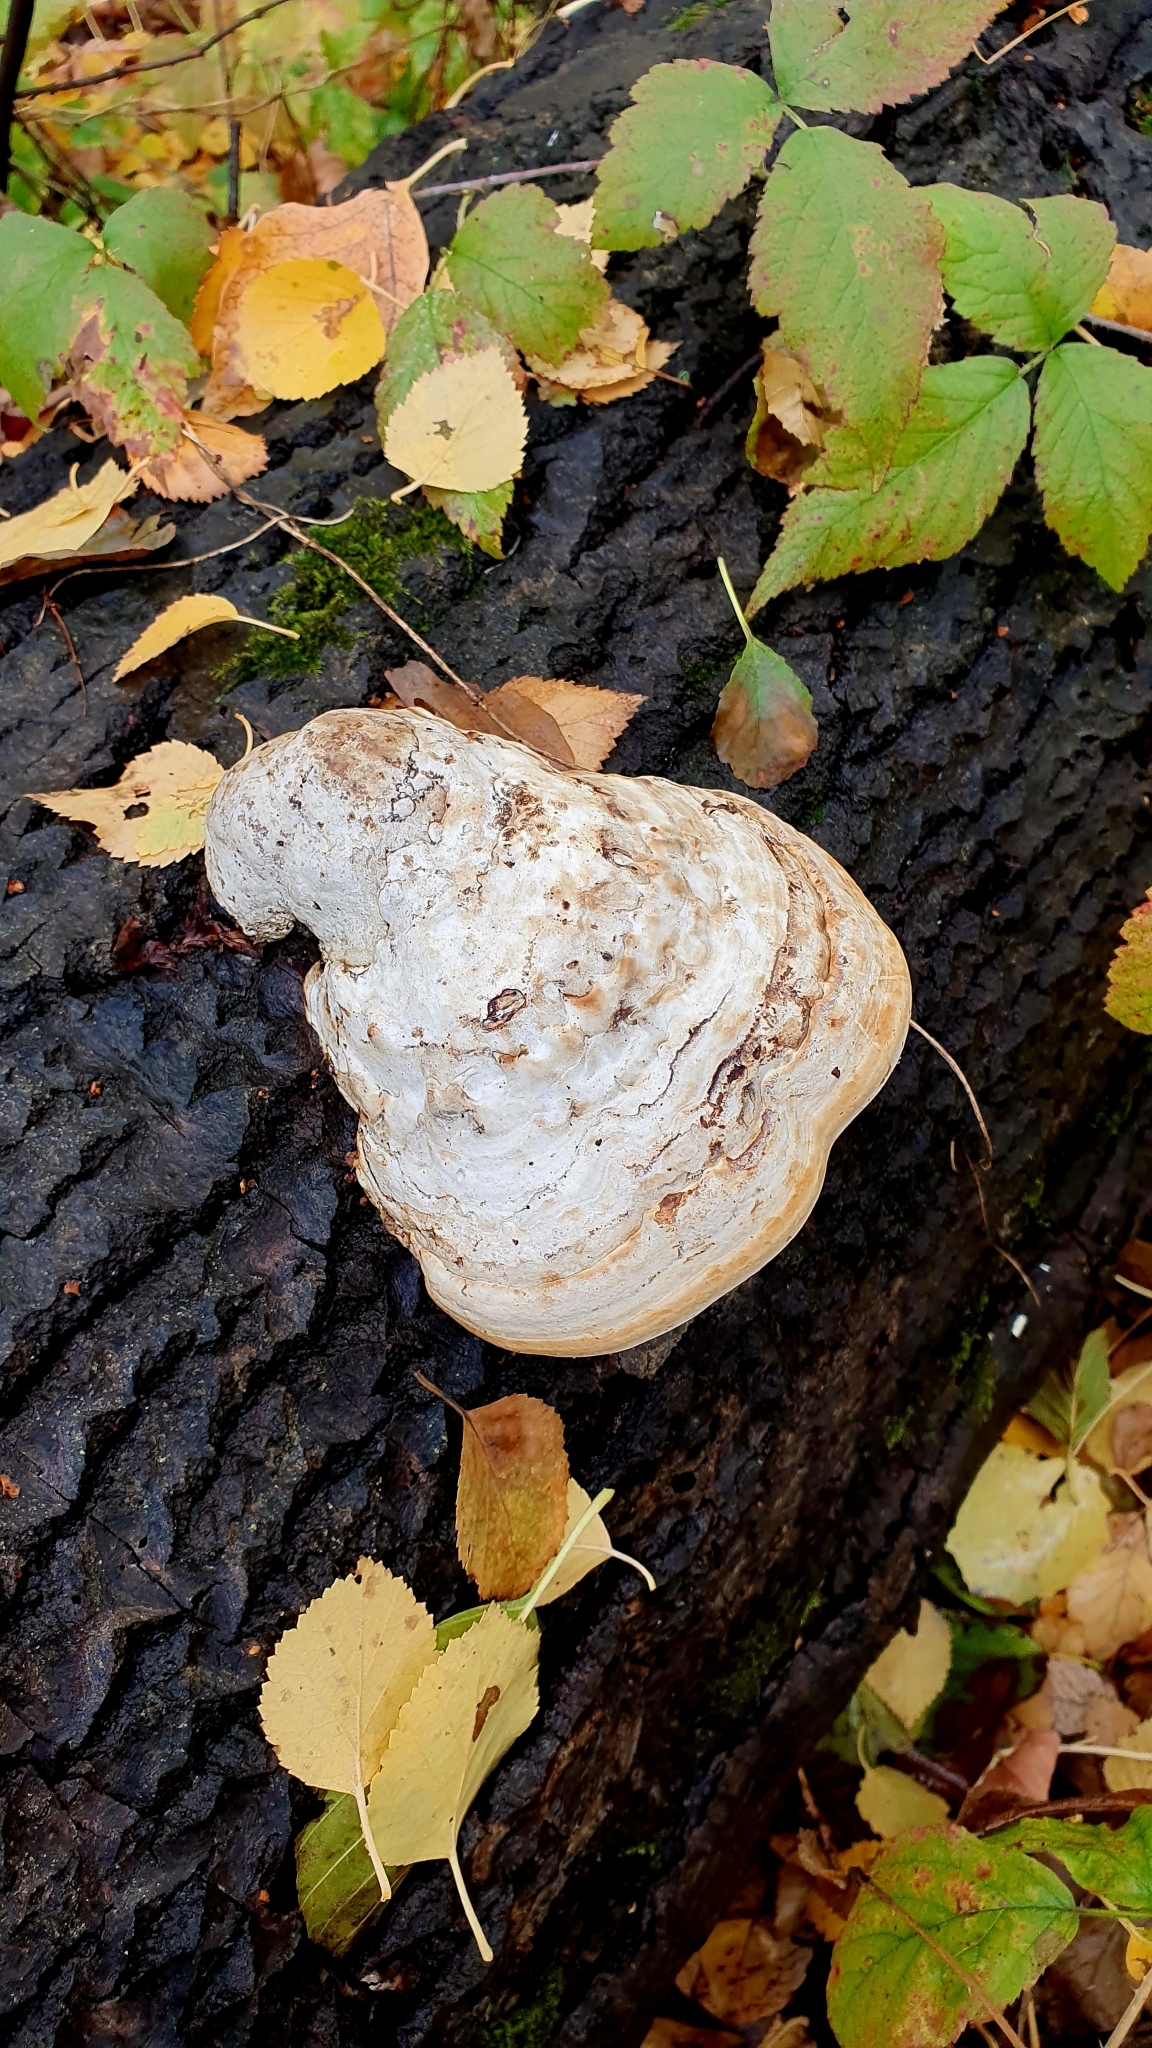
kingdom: Fungi
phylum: Basidiomycota
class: Agaricomycetes
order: Polyporales
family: Polyporaceae
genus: Fomes
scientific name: Fomes fomentarius
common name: Hoof fungus
